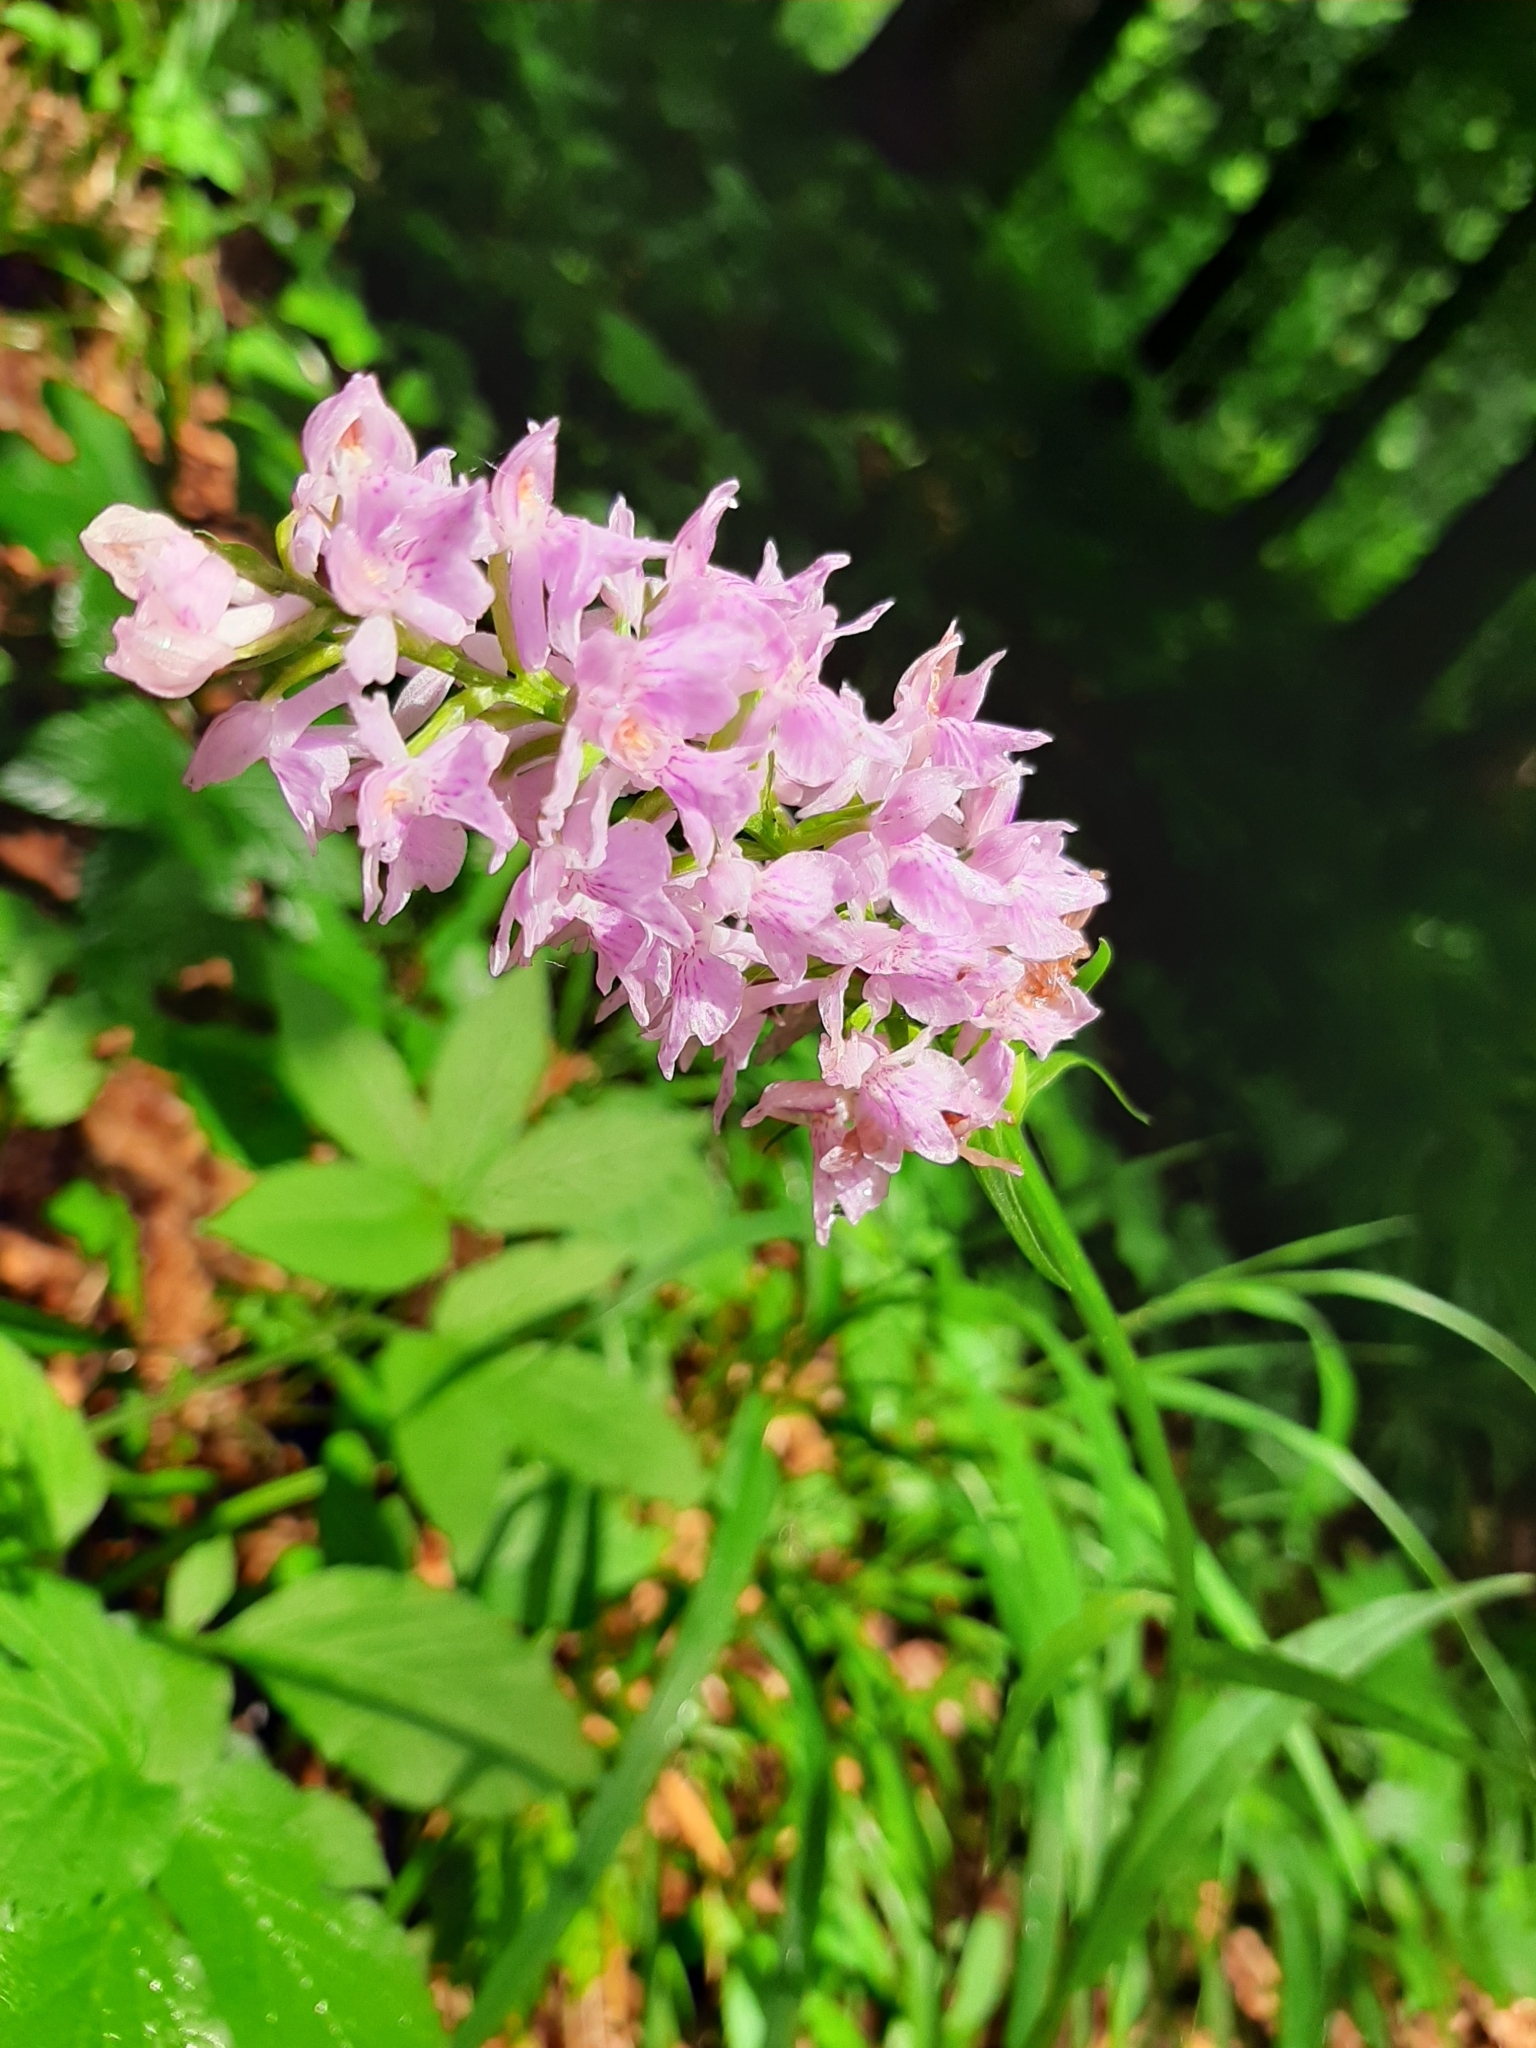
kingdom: Plantae
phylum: Tracheophyta
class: Liliopsida
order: Asparagales
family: Orchidaceae
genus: Dactylorhiza
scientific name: Dactylorhiza maculata
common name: Heath spotted-orchid
